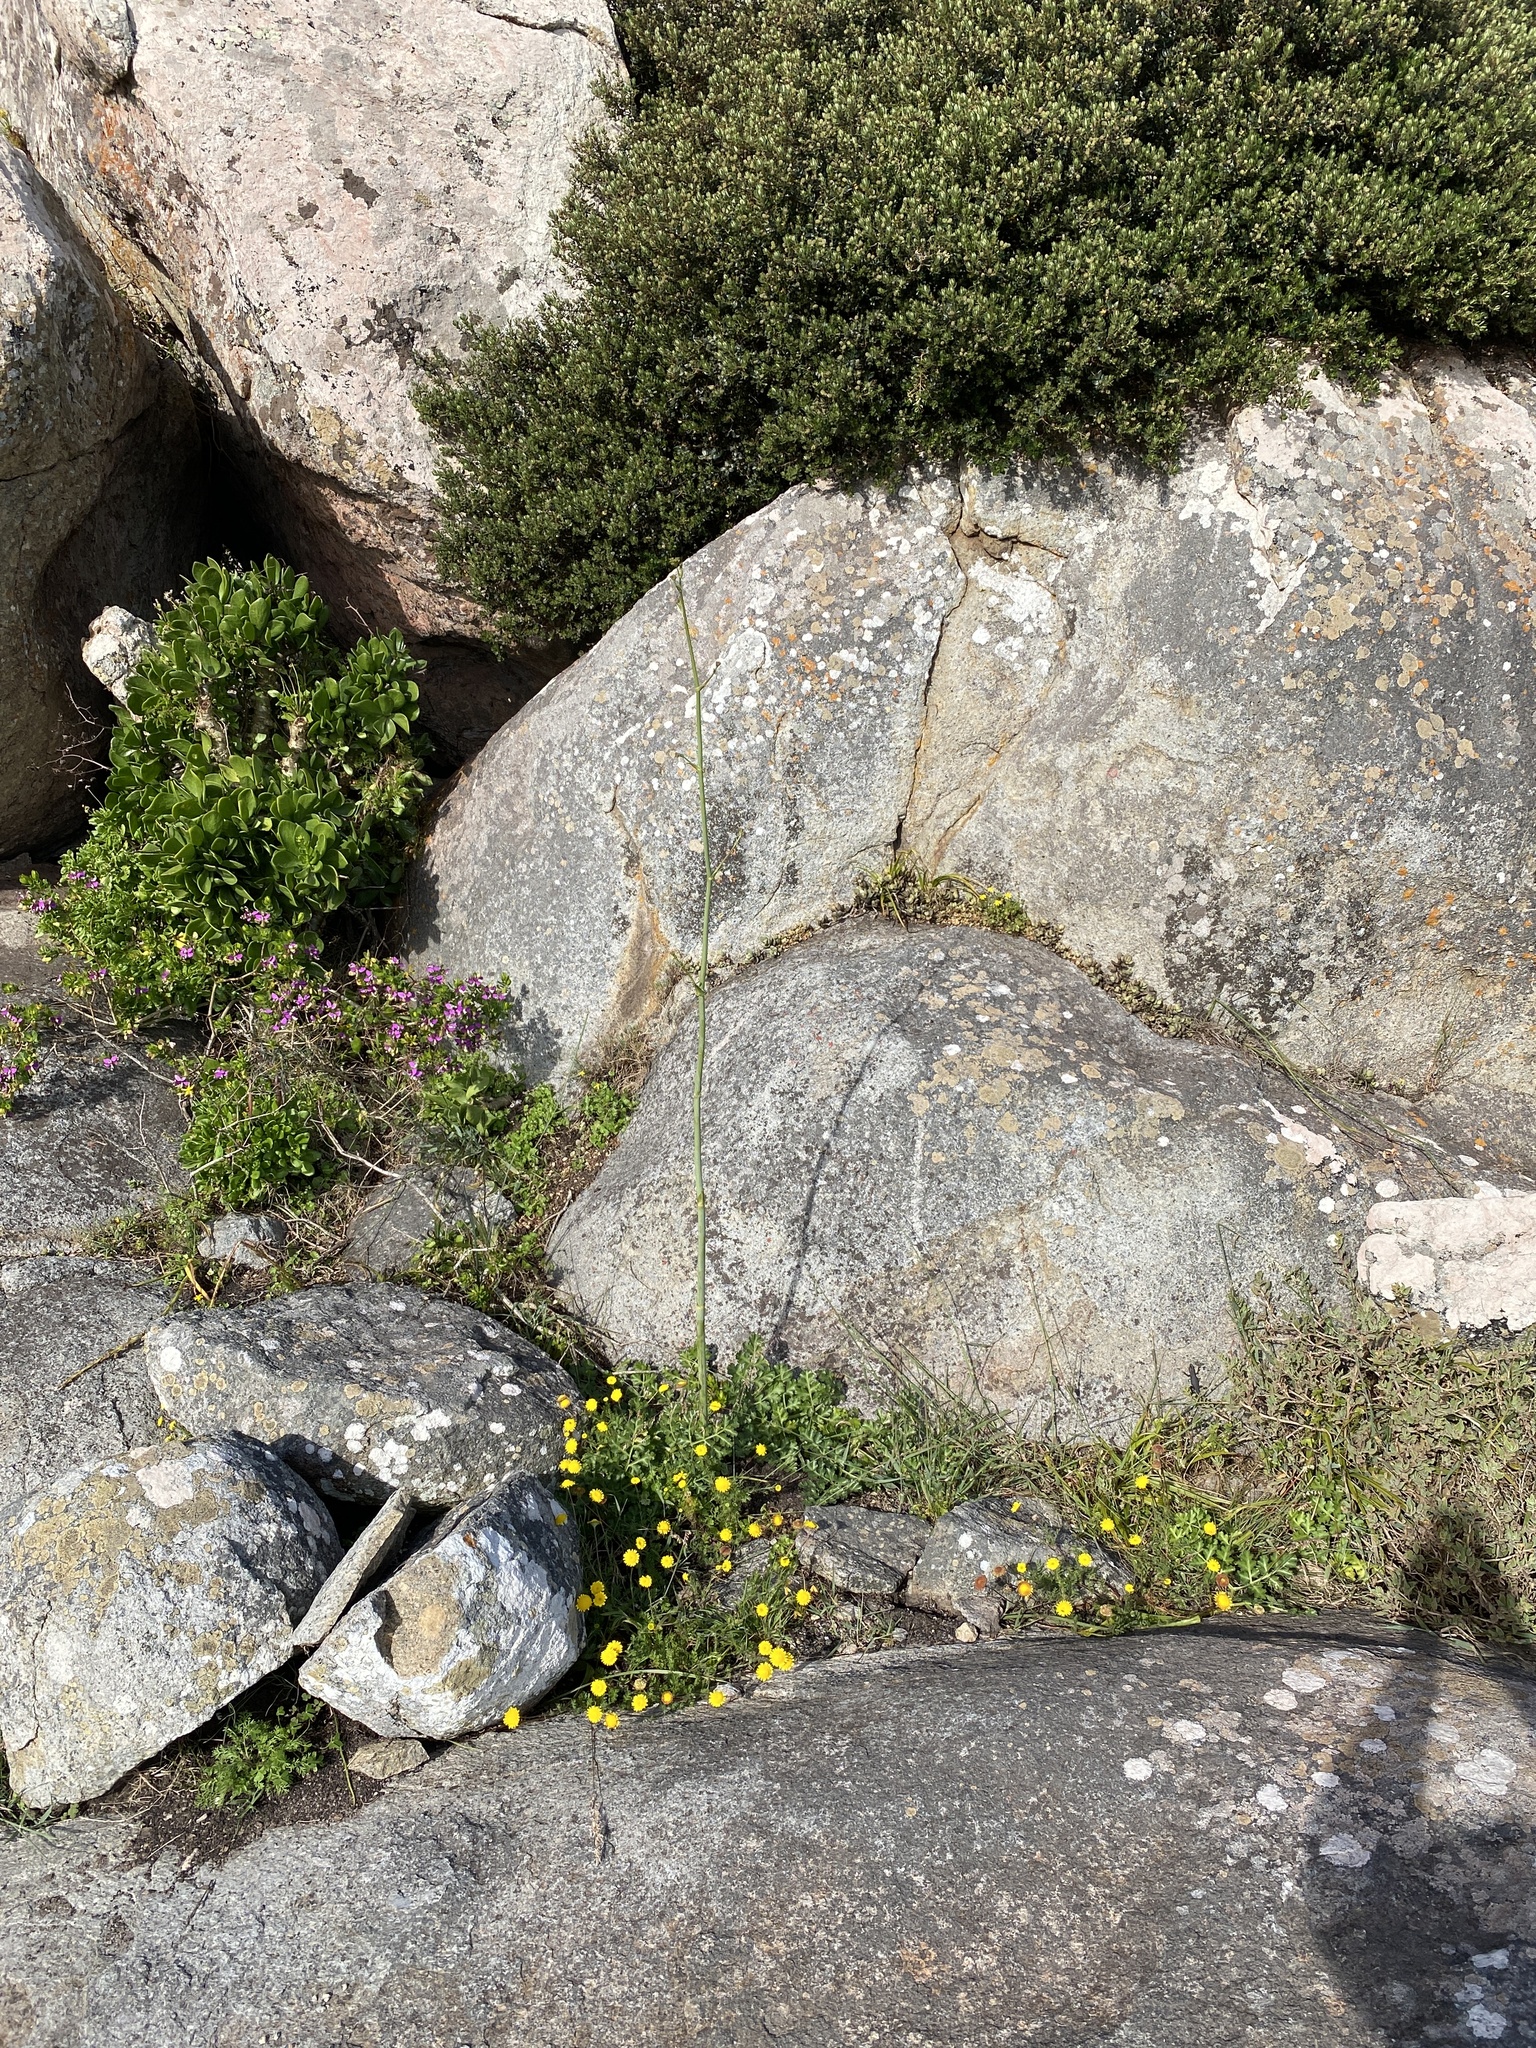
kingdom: Plantae
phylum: Tracheophyta
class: Magnoliopsida
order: Apiales
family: Apiaceae
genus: Annesorhiza
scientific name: Annesorhiza nuda
